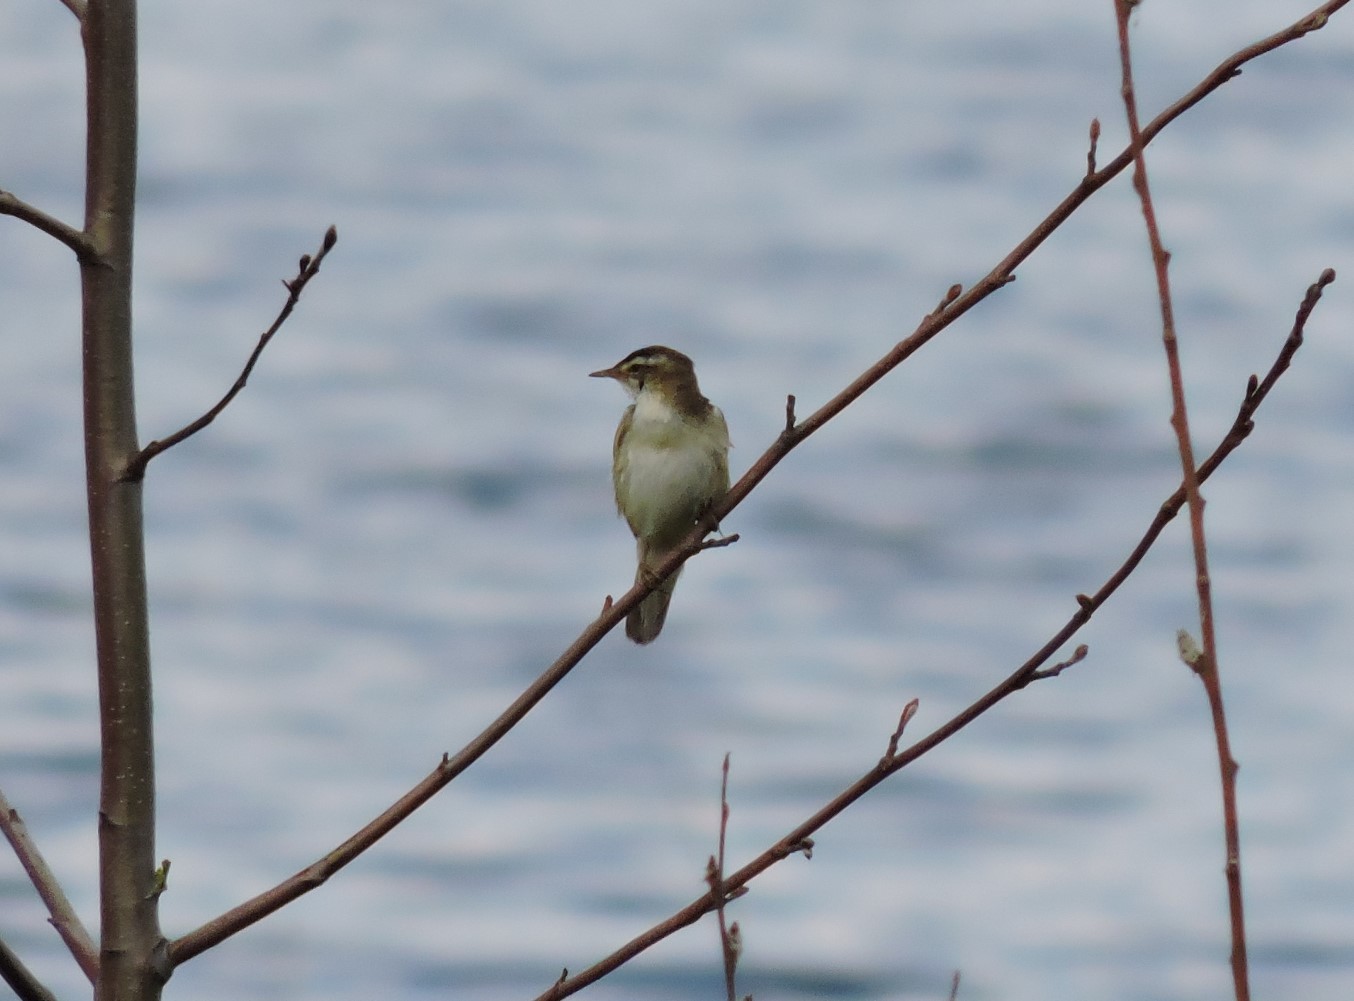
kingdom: Animalia
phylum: Chordata
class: Aves
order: Passeriformes
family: Acrocephalidae
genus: Acrocephalus
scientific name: Acrocephalus schoenobaenus
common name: Sedge warbler
